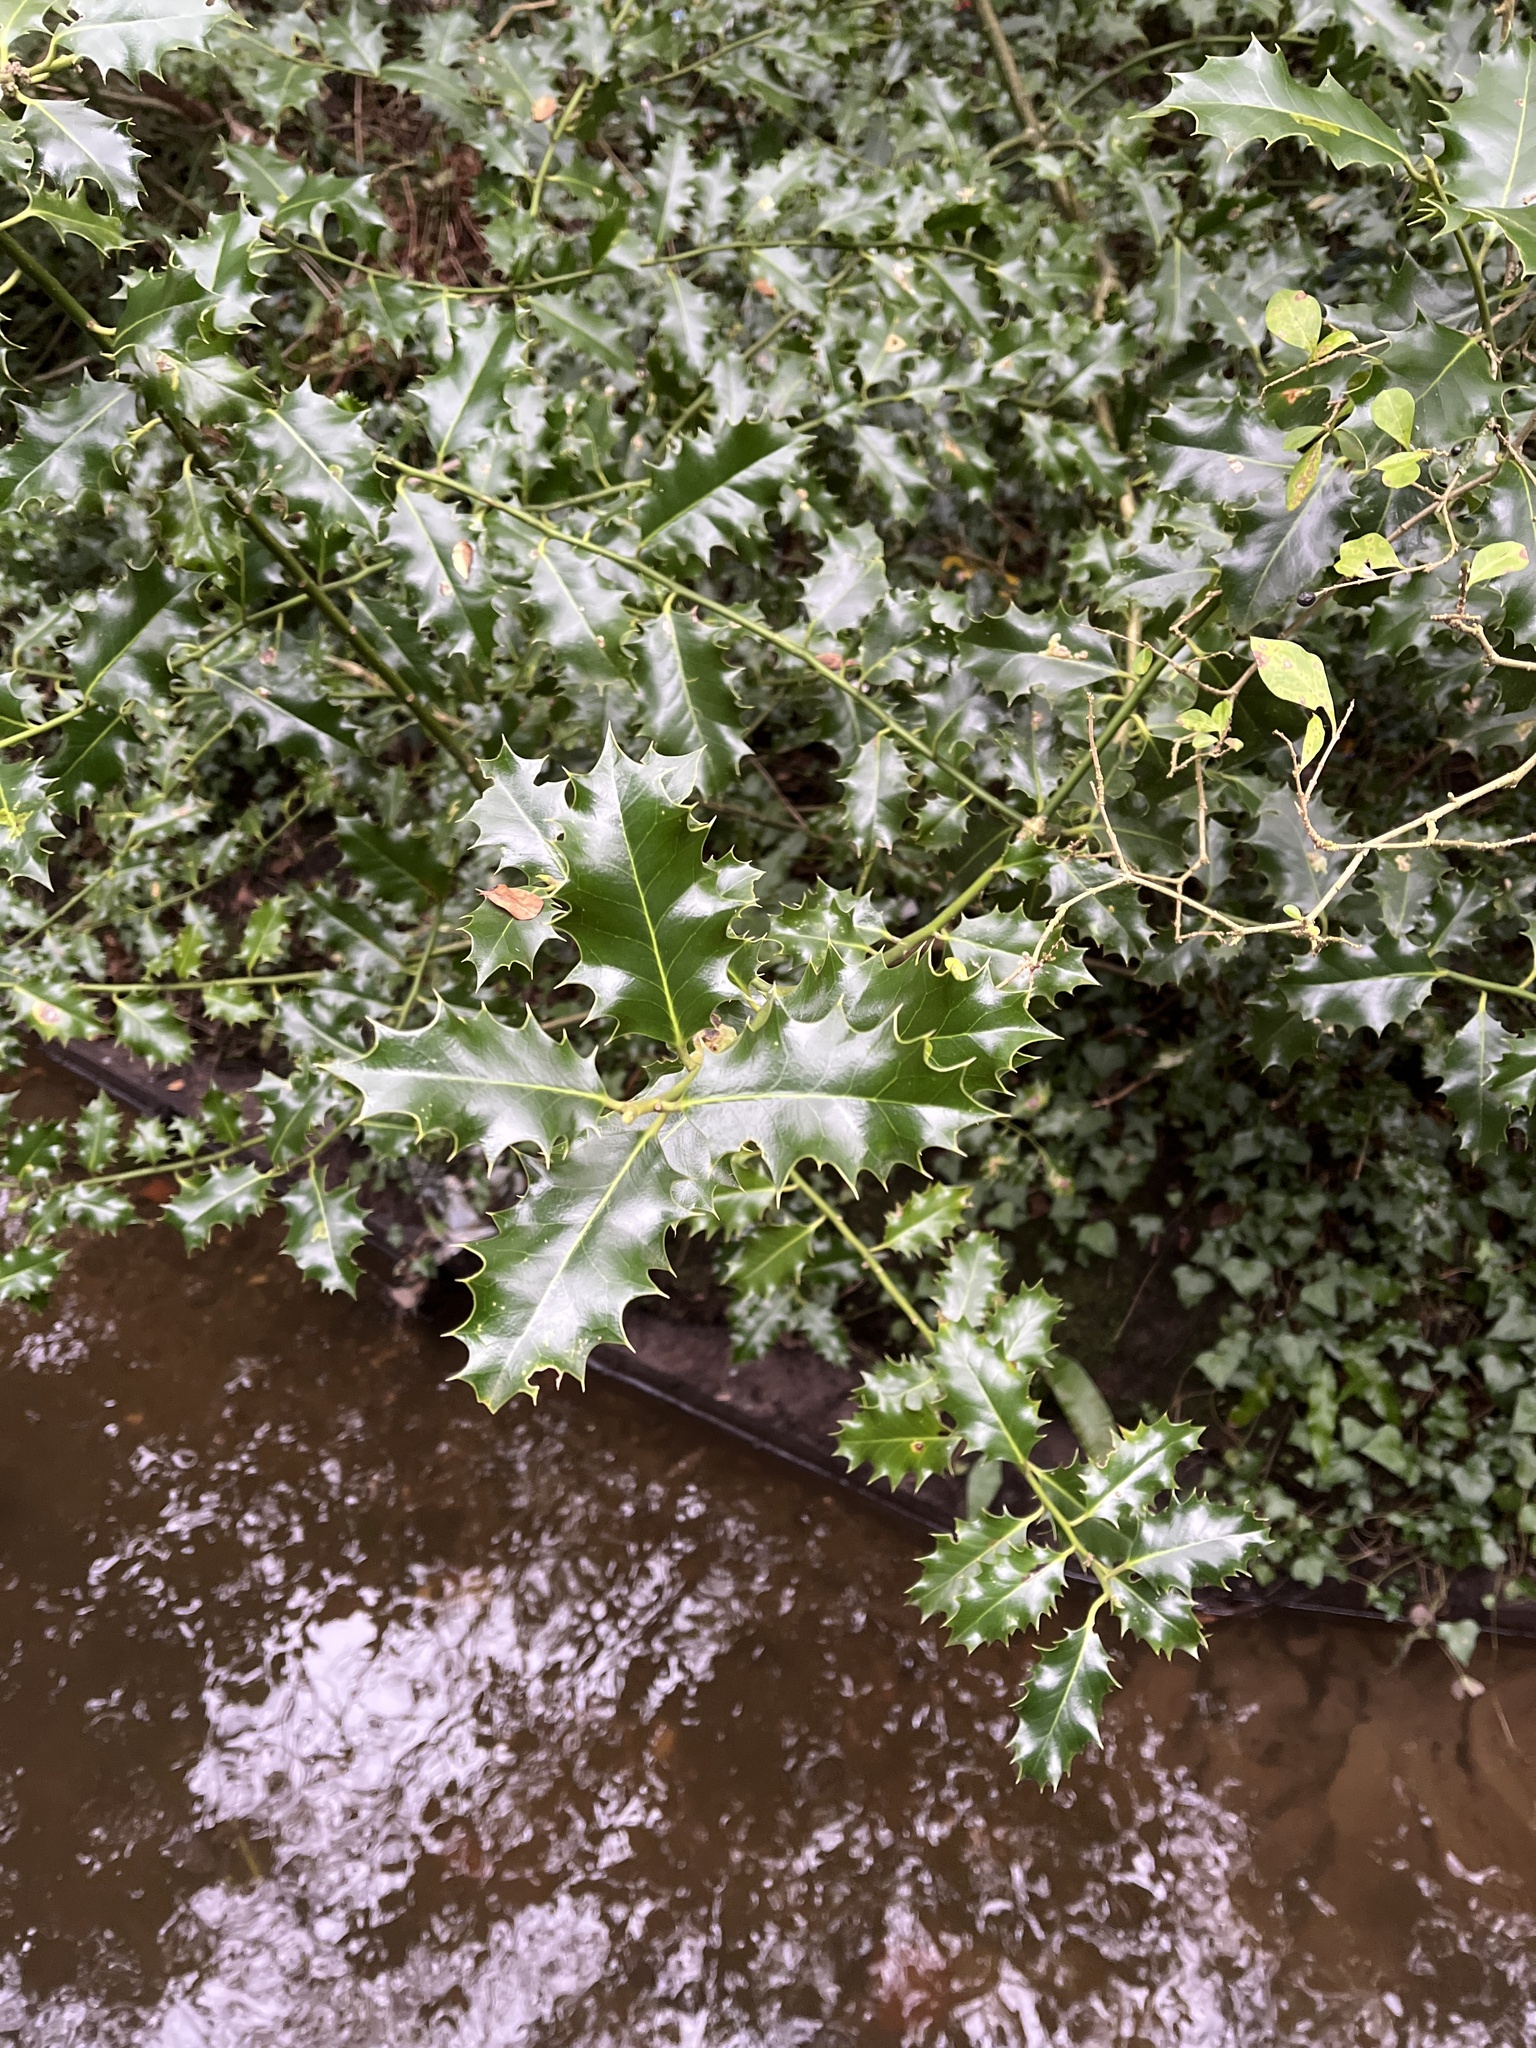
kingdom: Plantae
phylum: Tracheophyta
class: Magnoliopsida
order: Aquifoliales
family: Aquifoliaceae
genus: Ilex
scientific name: Ilex aquifolium
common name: English holly
